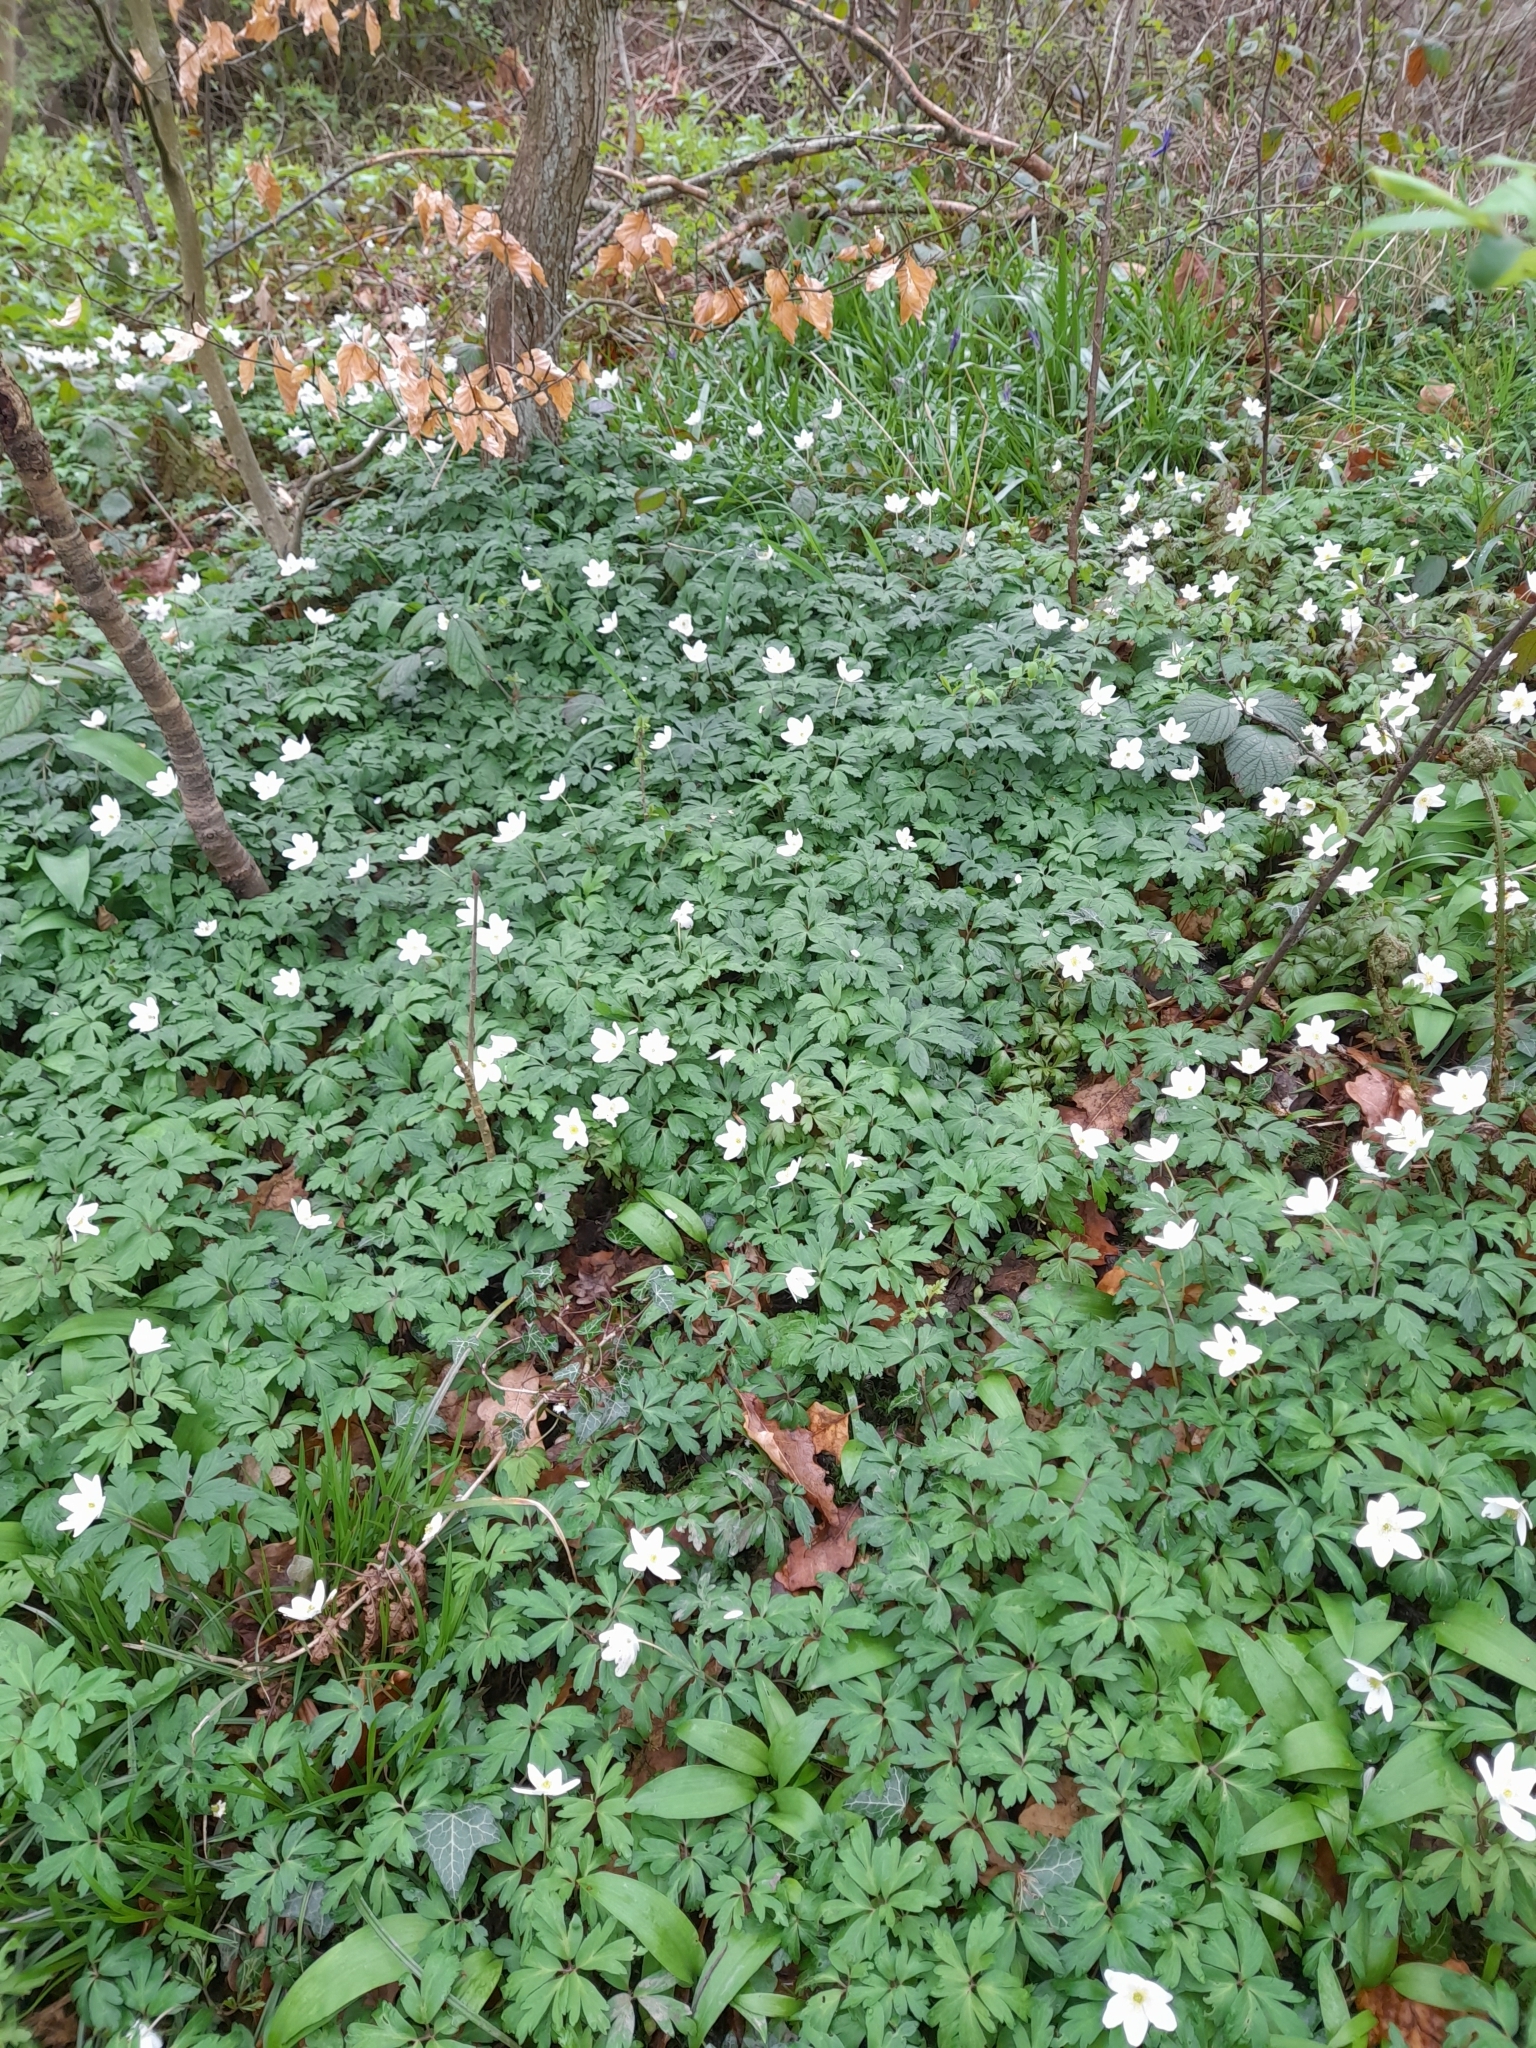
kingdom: Plantae
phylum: Tracheophyta
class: Magnoliopsida
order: Ranunculales
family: Ranunculaceae
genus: Anemone
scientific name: Anemone nemorosa
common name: Wood anemone
